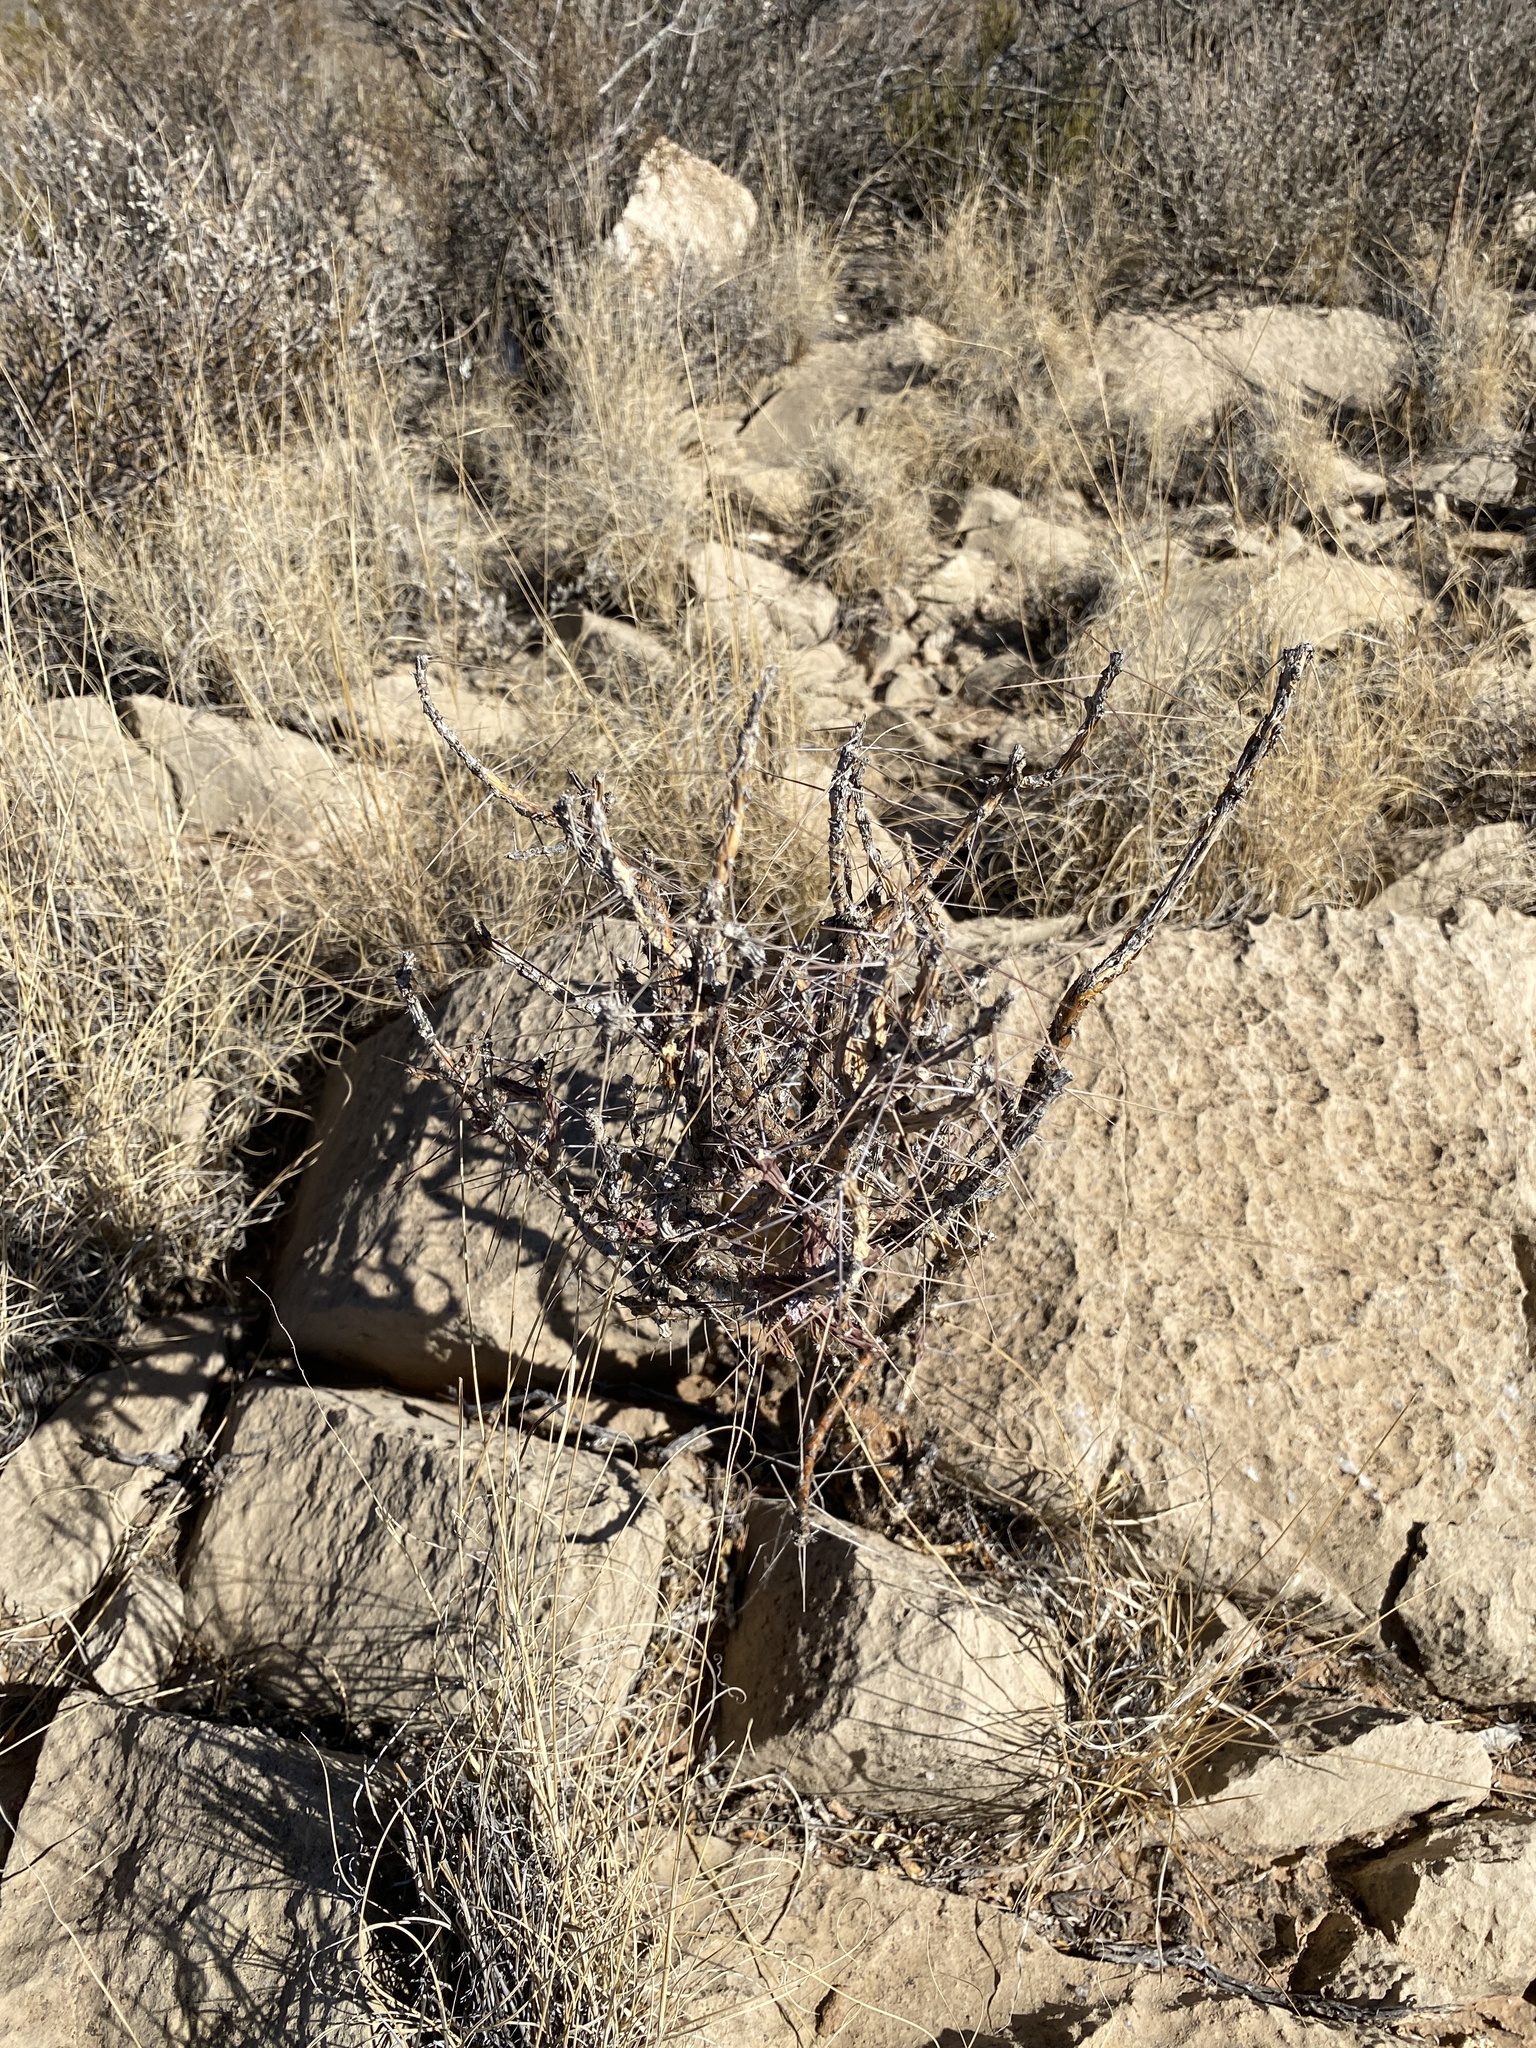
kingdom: Plantae
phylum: Tracheophyta
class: Magnoliopsida
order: Caryophyllales
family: Cactaceae
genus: Cylindropuntia
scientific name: Cylindropuntia leptocaulis
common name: Christmas cactus
